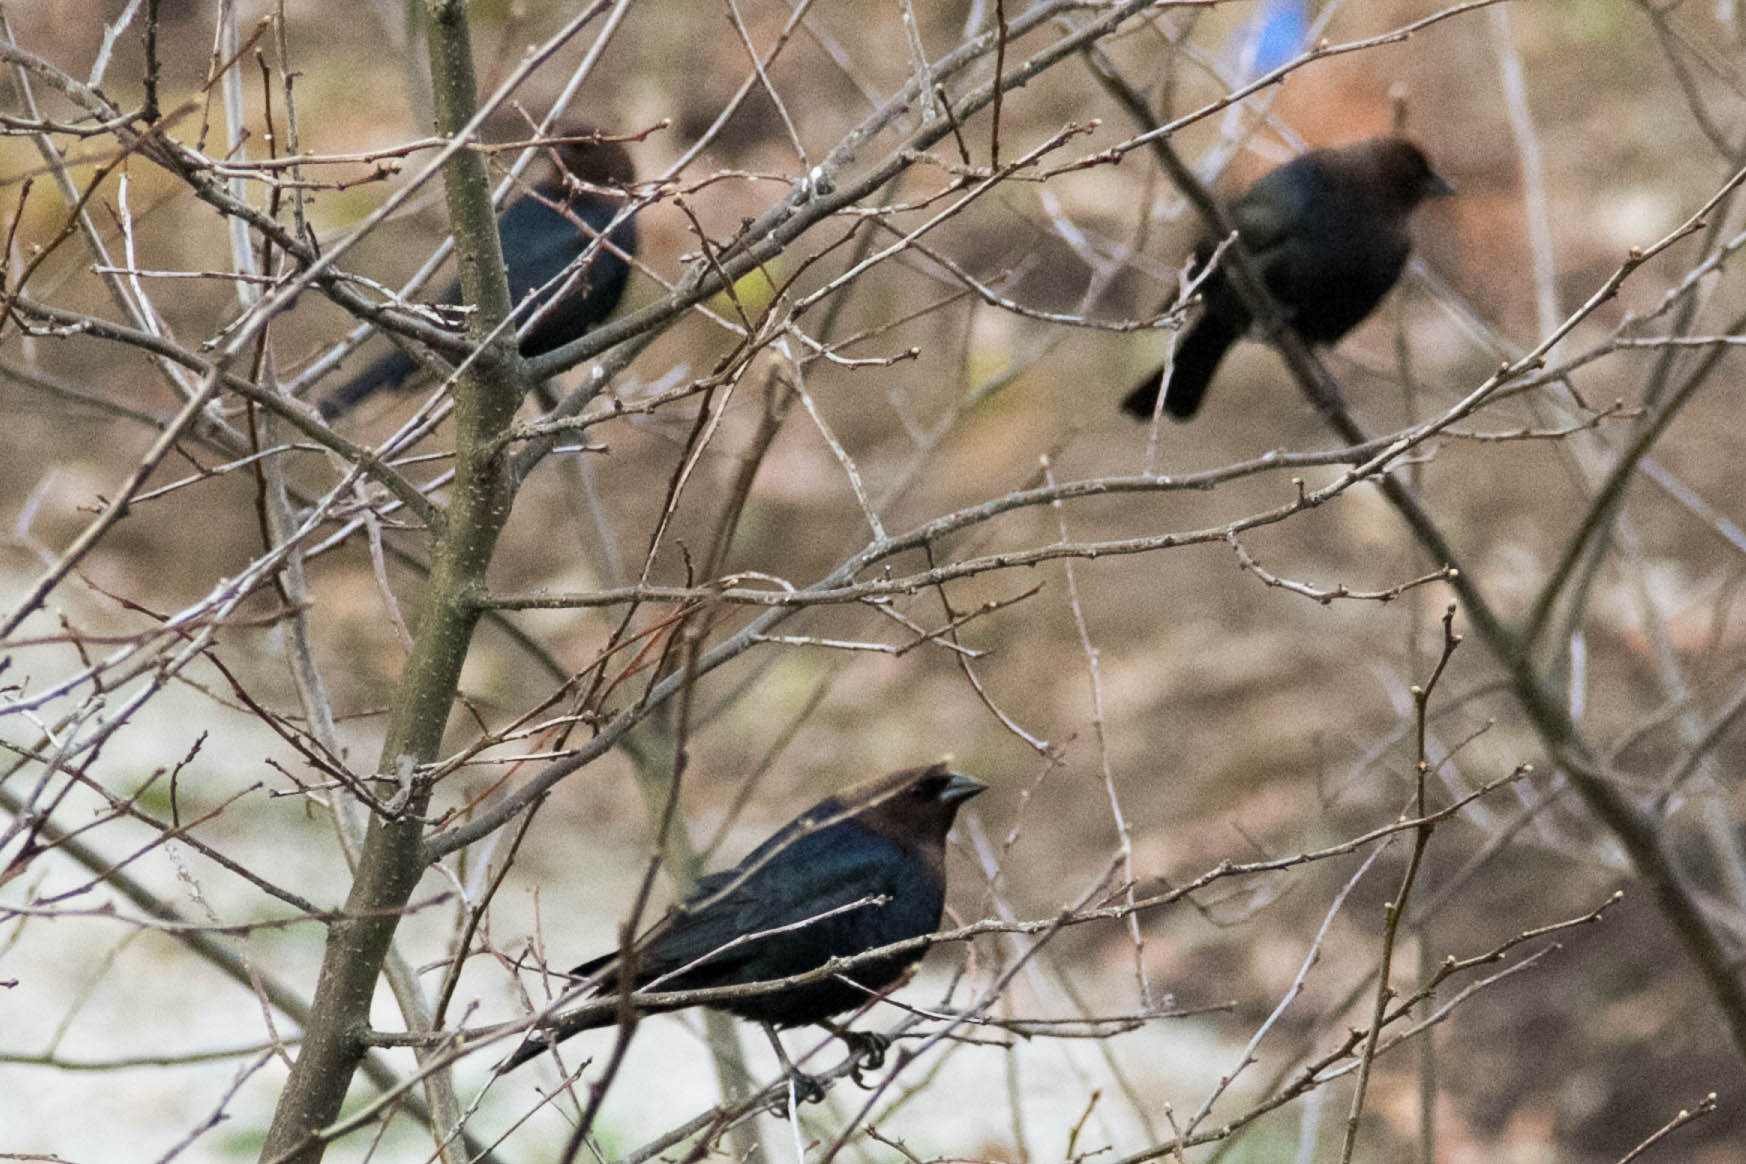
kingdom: Animalia
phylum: Chordata
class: Aves
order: Passeriformes
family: Icteridae
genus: Molothrus
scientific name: Molothrus ater
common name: Brown-headed cowbird
